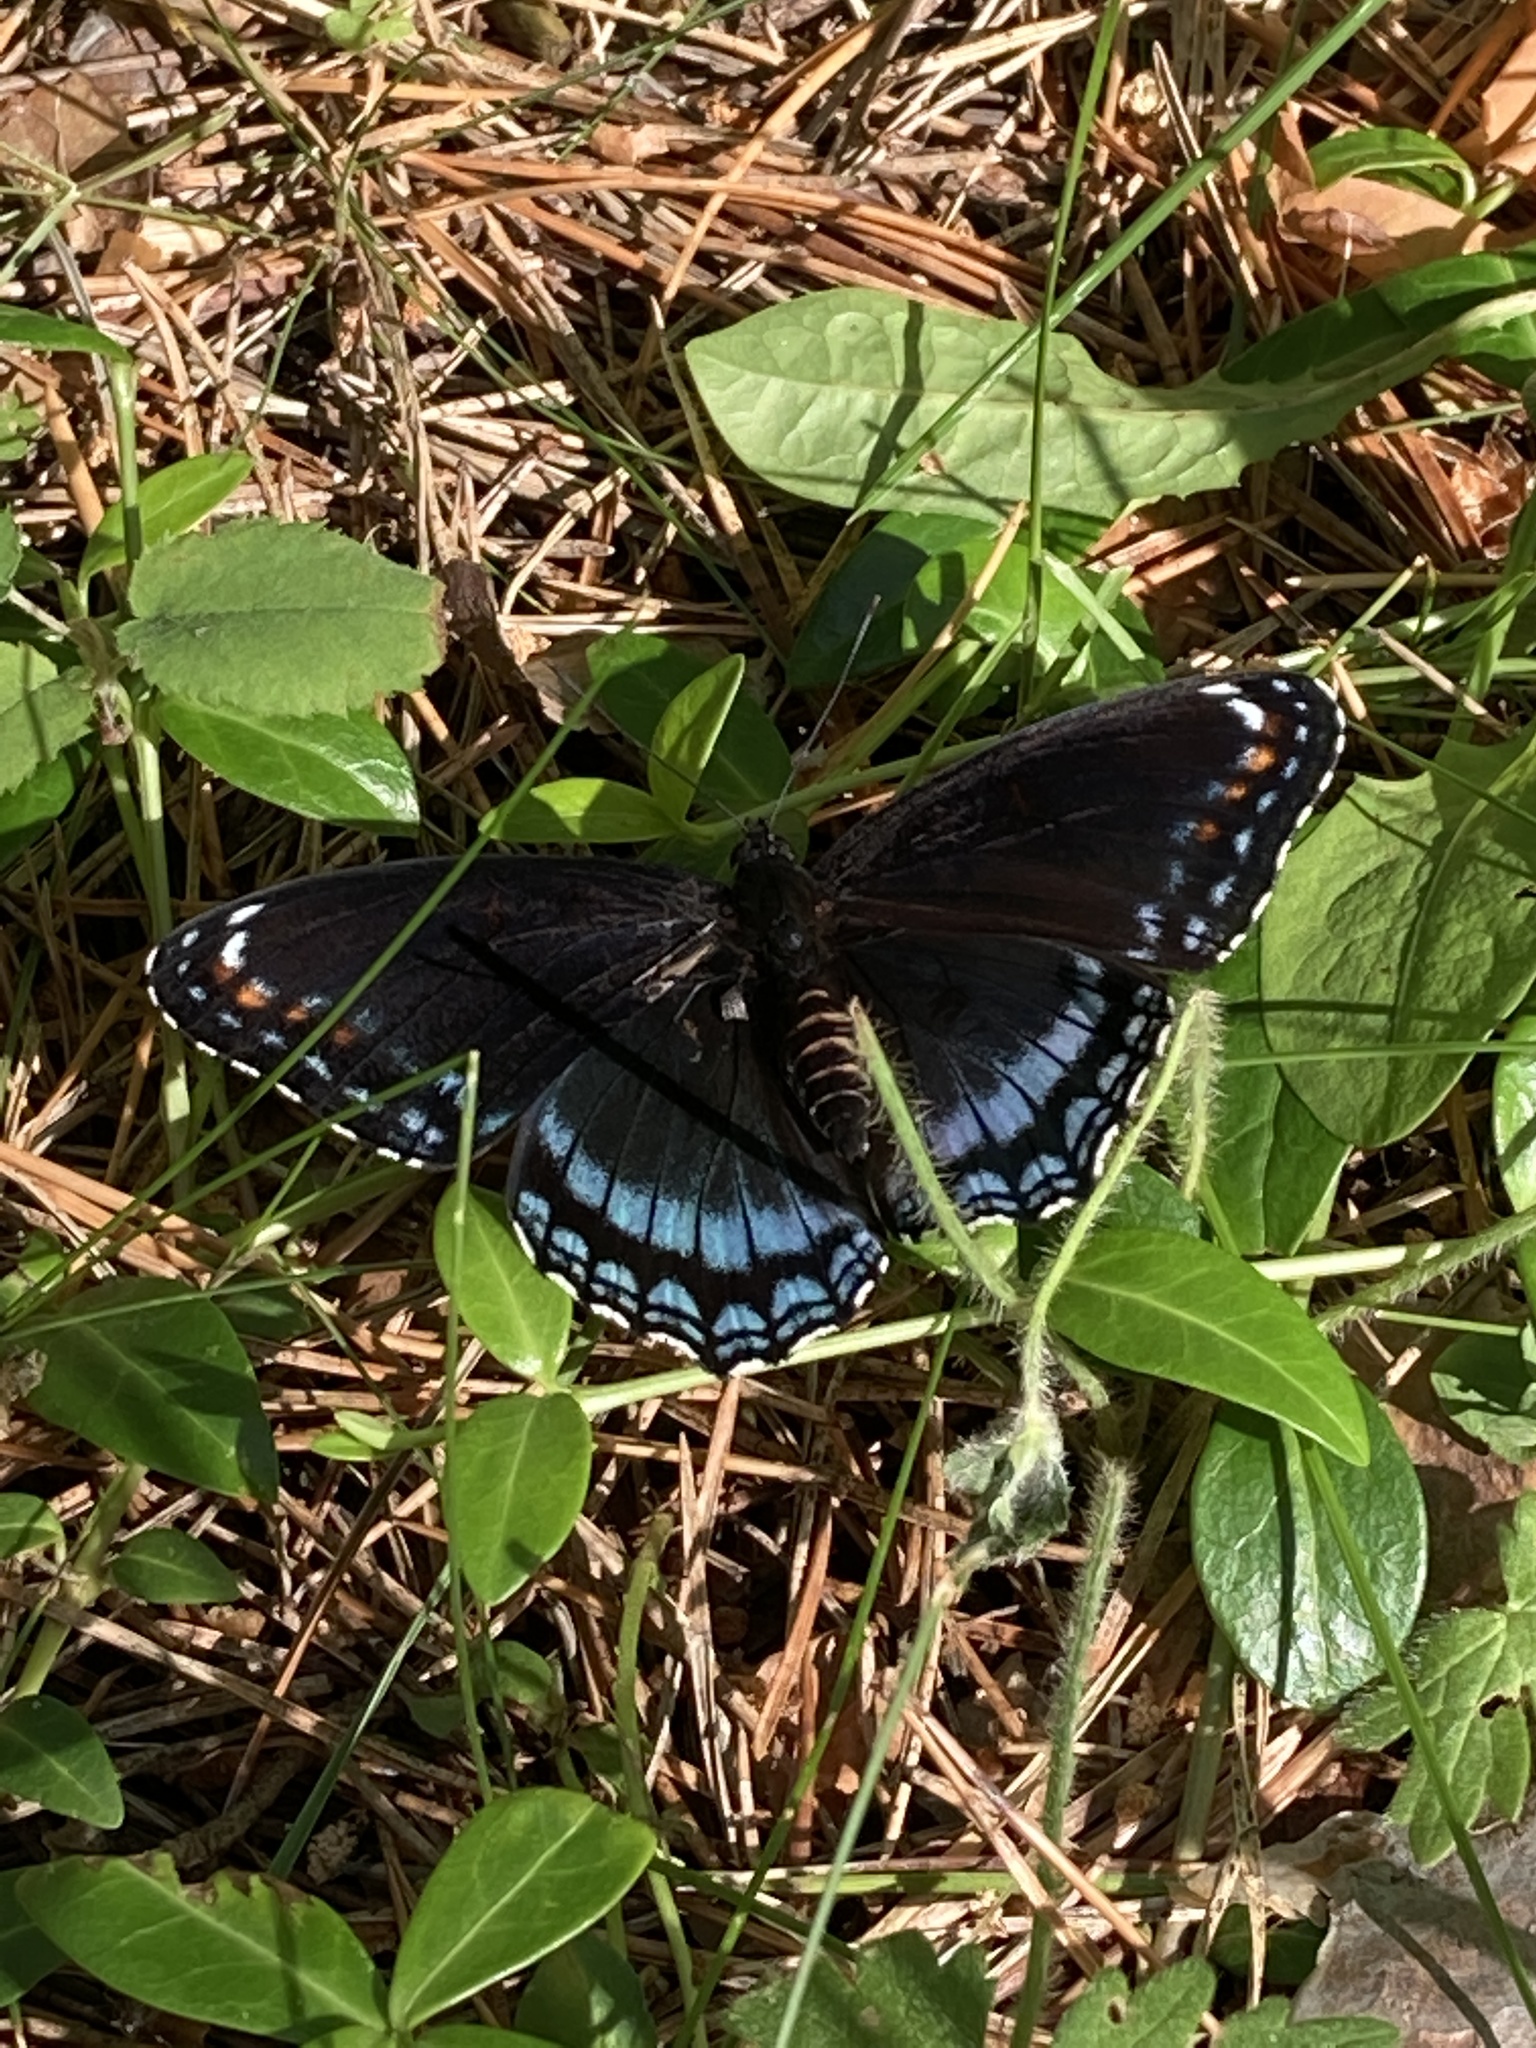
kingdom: Animalia
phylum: Arthropoda
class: Insecta
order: Lepidoptera
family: Nymphalidae
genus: Limenitis
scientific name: Limenitis astyanax
